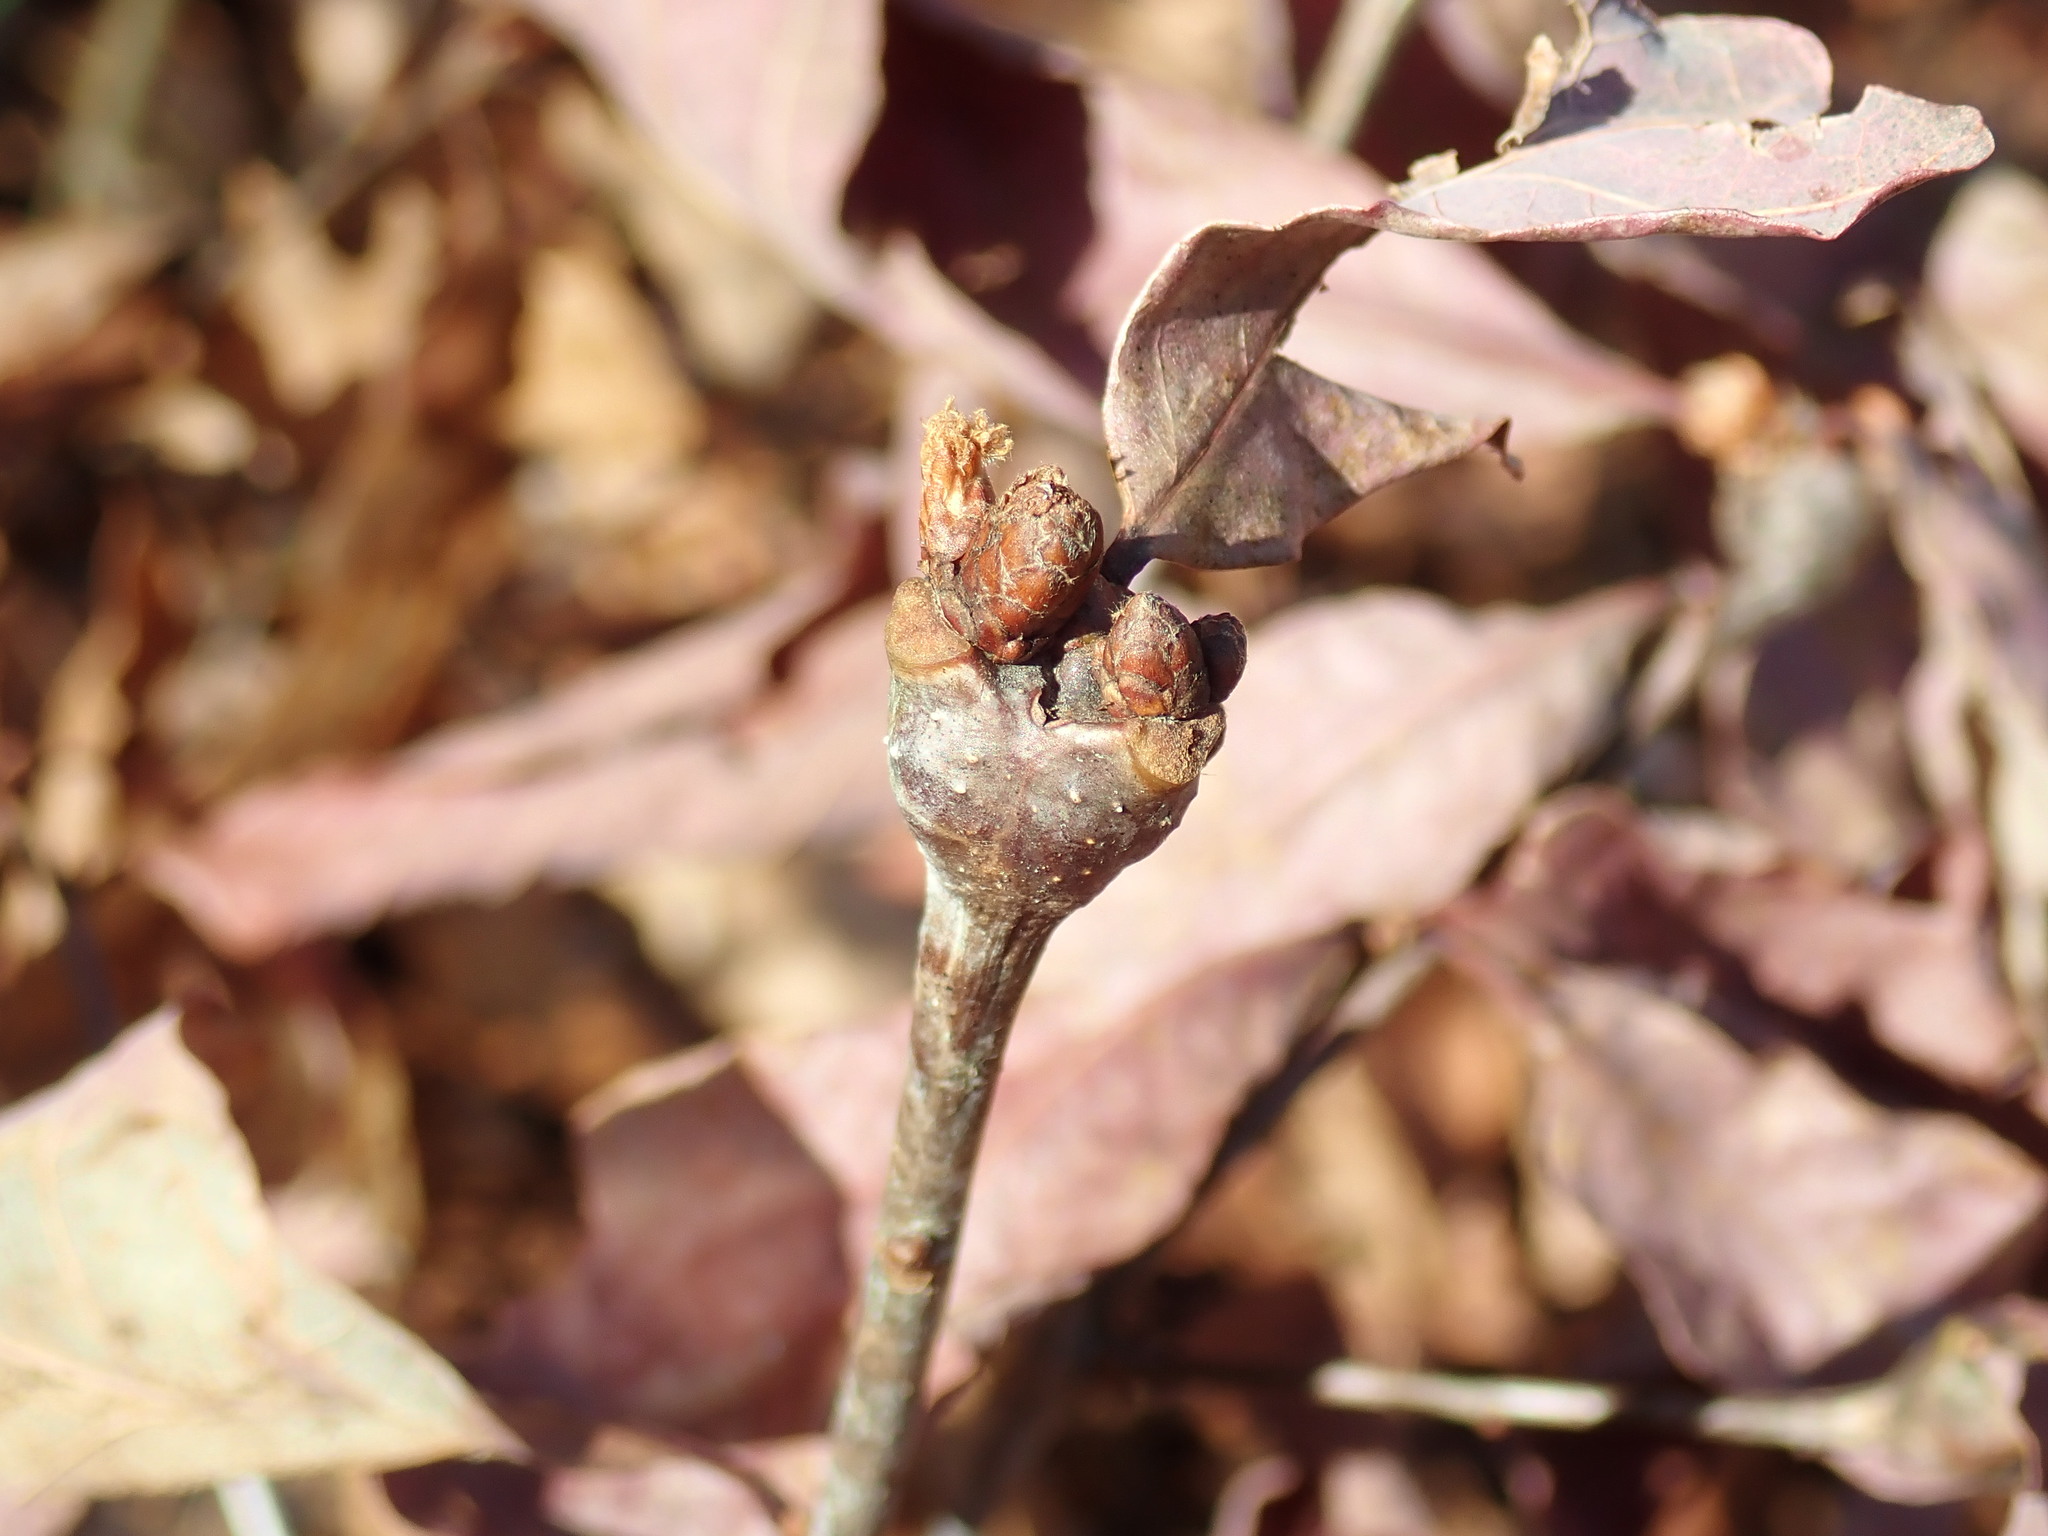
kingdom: Animalia
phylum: Arthropoda
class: Insecta
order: Hymenoptera
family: Cynipidae
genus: Callirhytis
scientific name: Callirhytis clavula
